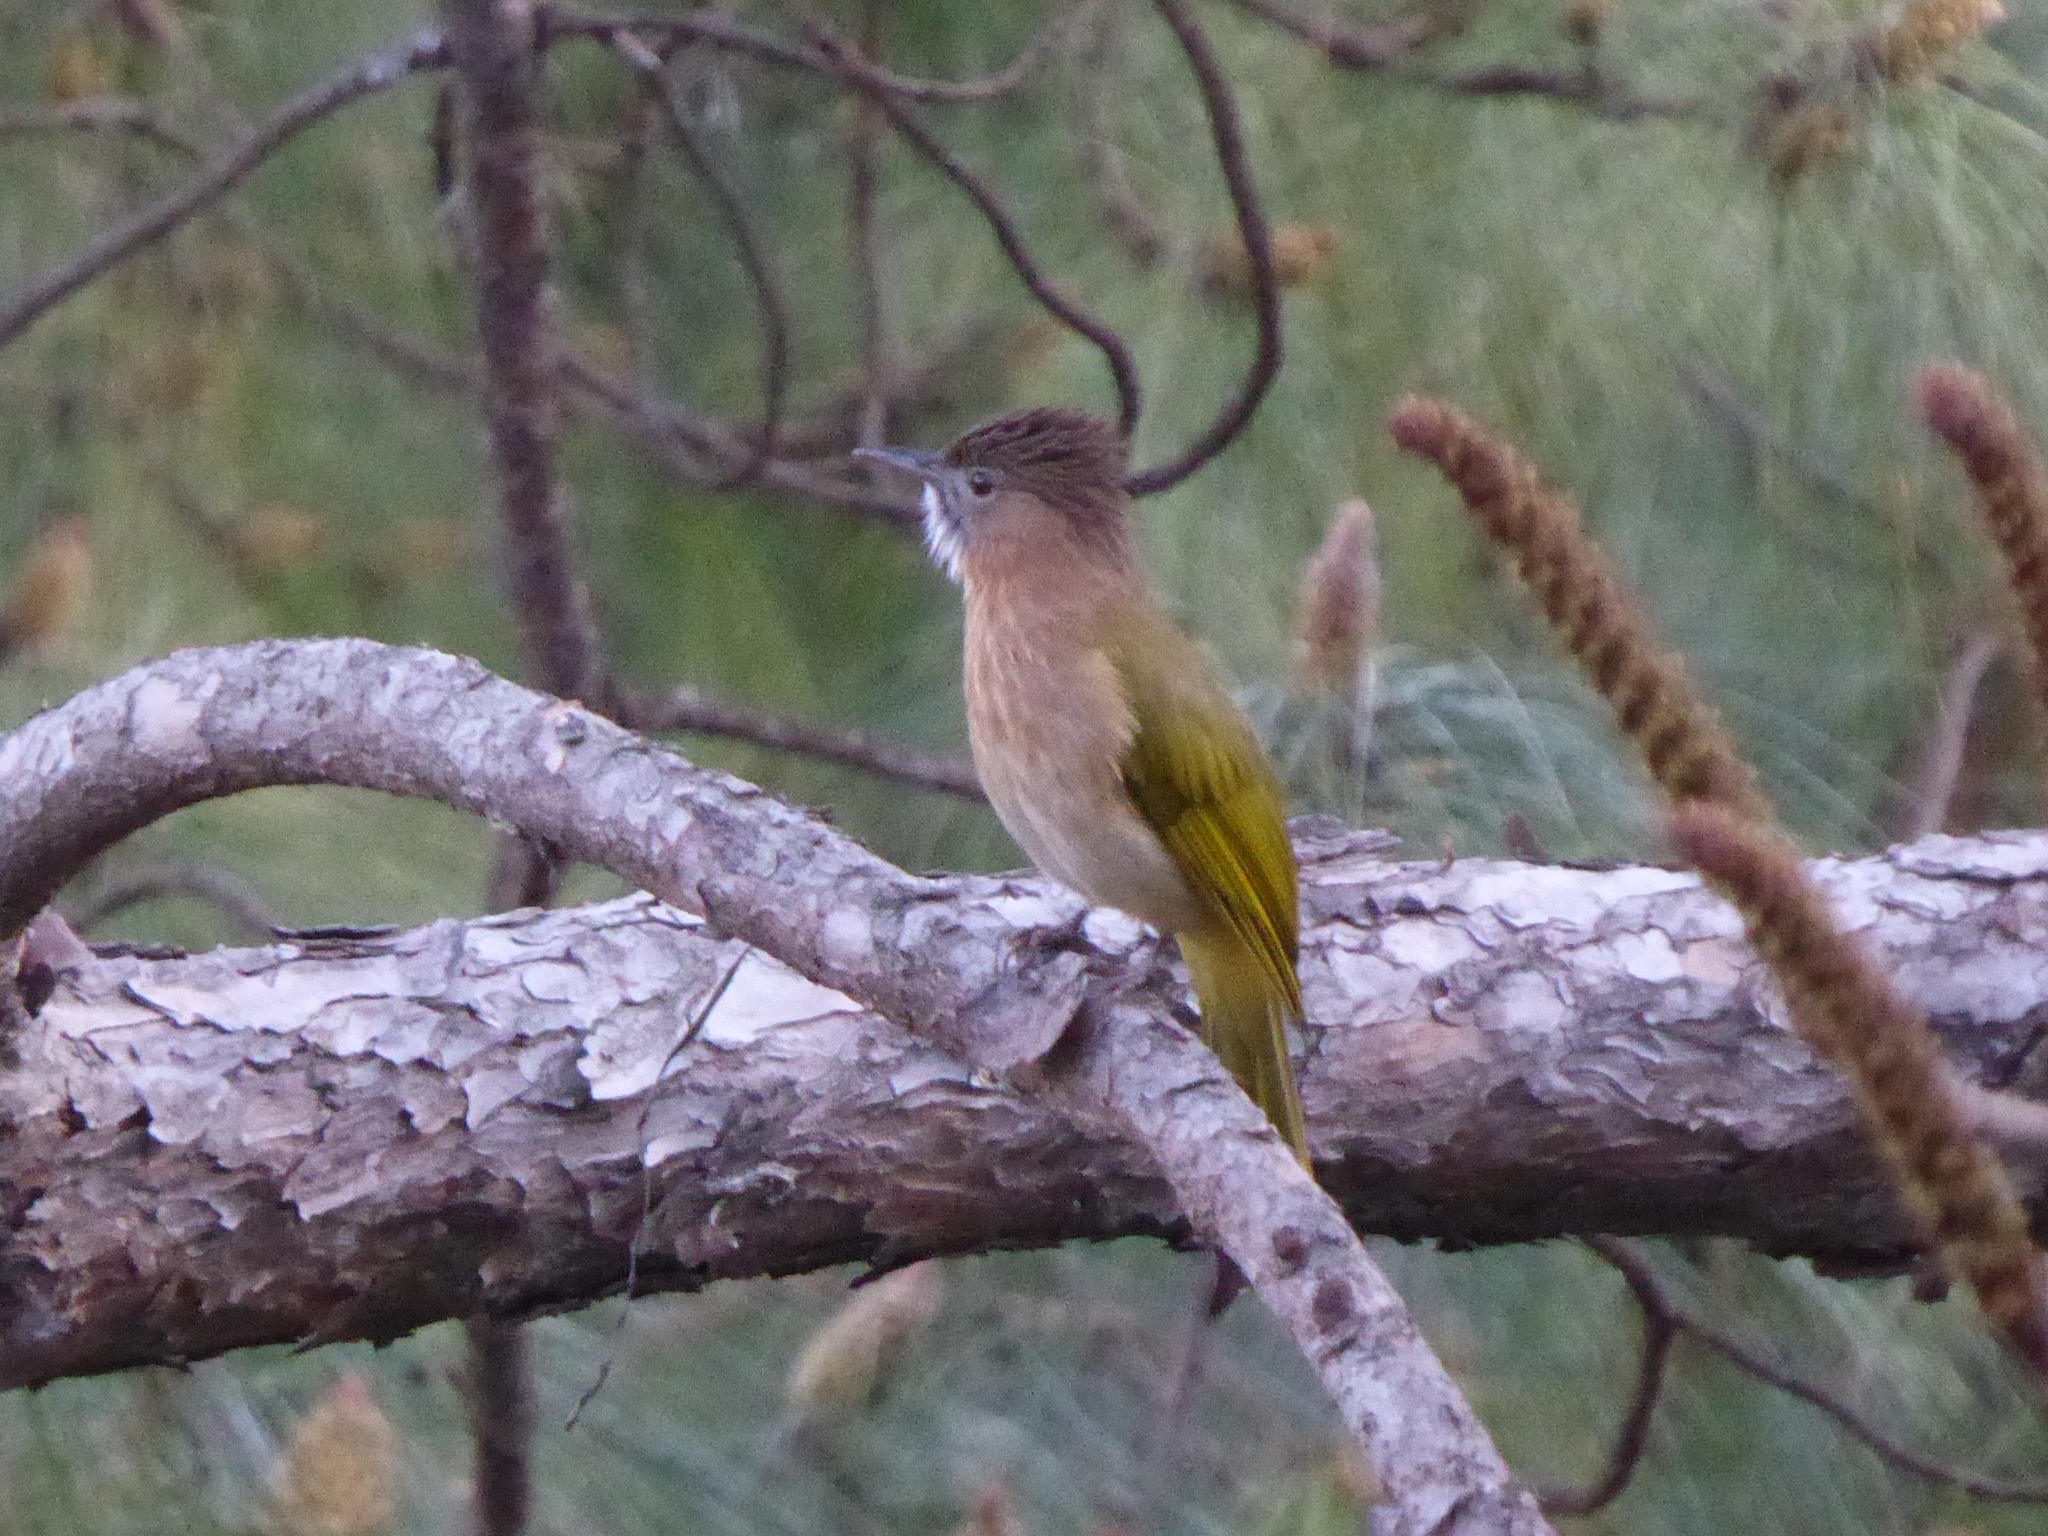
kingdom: Animalia
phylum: Chordata
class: Aves
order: Passeriformes
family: Pycnonotidae
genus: Ixos
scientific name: Ixos mcclellandii
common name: Mountain bulbul
